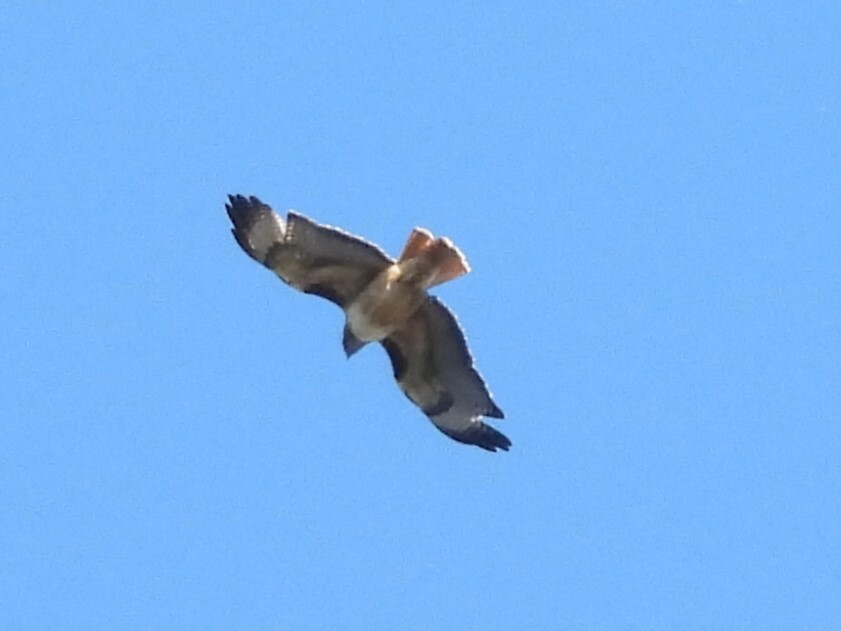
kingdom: Animalia
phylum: Chordata
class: Aves
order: Accipitriformes
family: Accipitridae
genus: Buteo
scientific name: Buteo jamaicensis
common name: Red-tailed hawk
